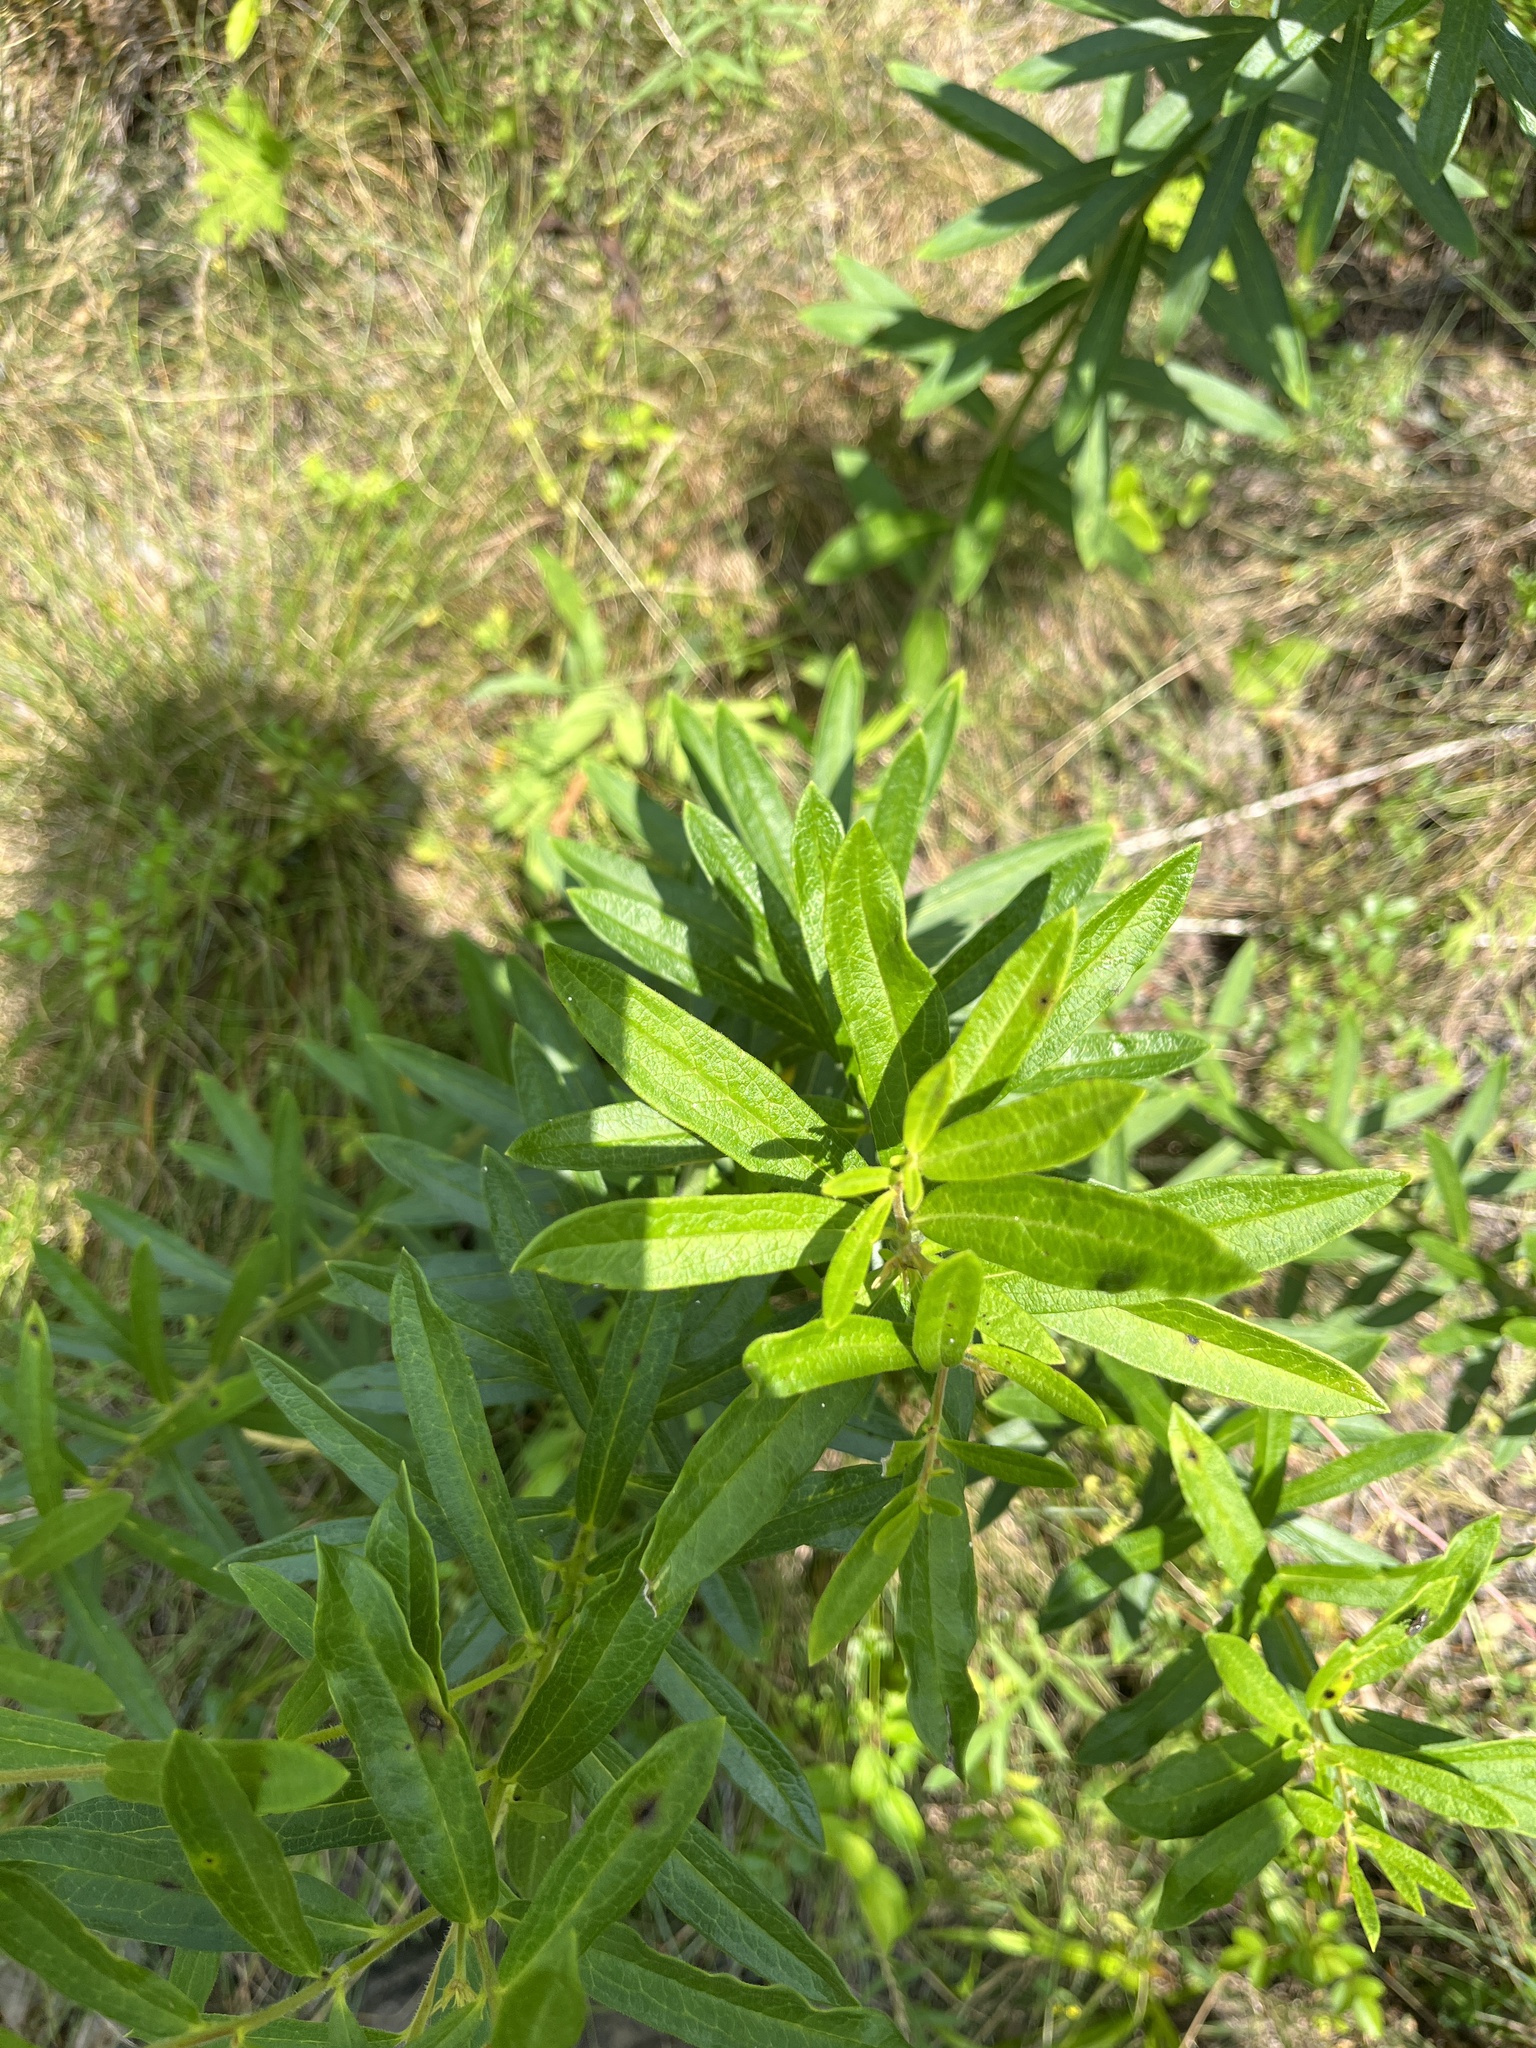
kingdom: Plantae
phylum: Tracheophyta
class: Magnoliopsida
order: Gentianales
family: Apocynaceae
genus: Asclepias
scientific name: Asclepias tuberosa
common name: Butterfly milkweed
